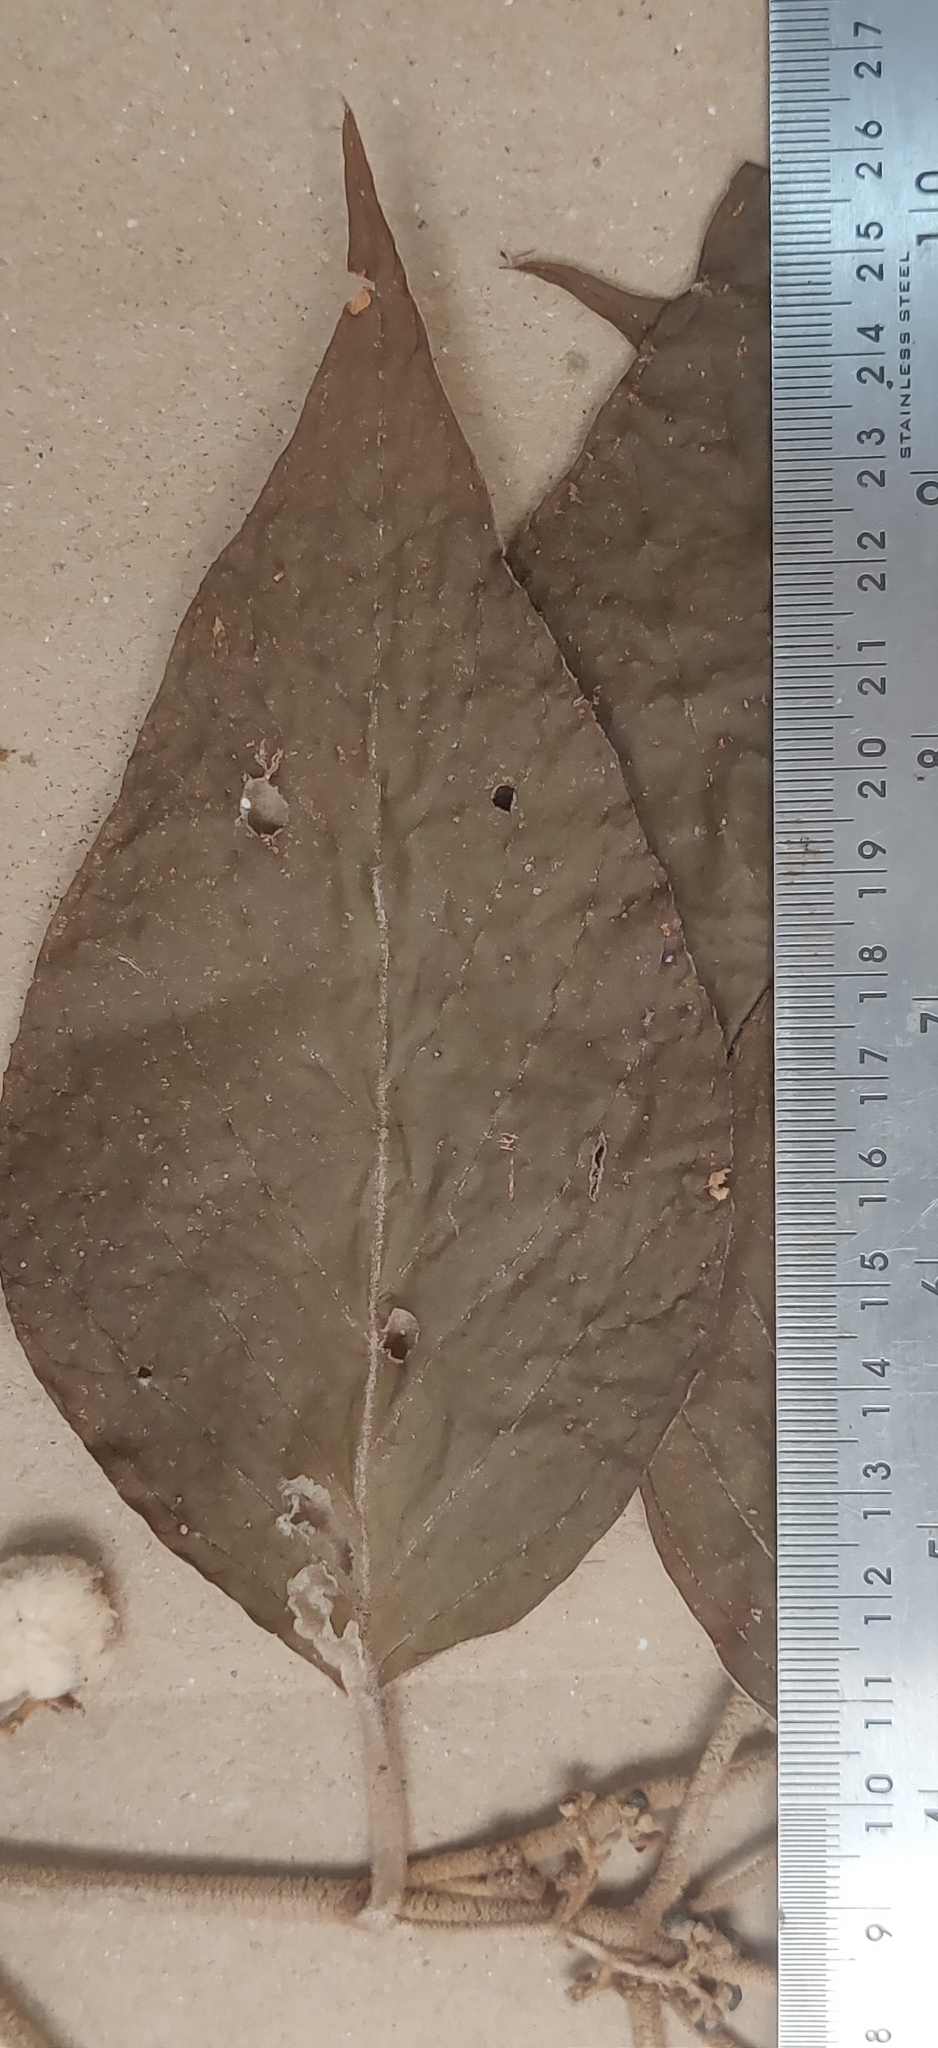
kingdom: Plantae
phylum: Tracheophyta
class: Magnoliopsida
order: Lamiales
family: Lamiaceae
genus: Callicarpa
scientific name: Callicarpa tomentosa
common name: Great woolly malayan-lilac
